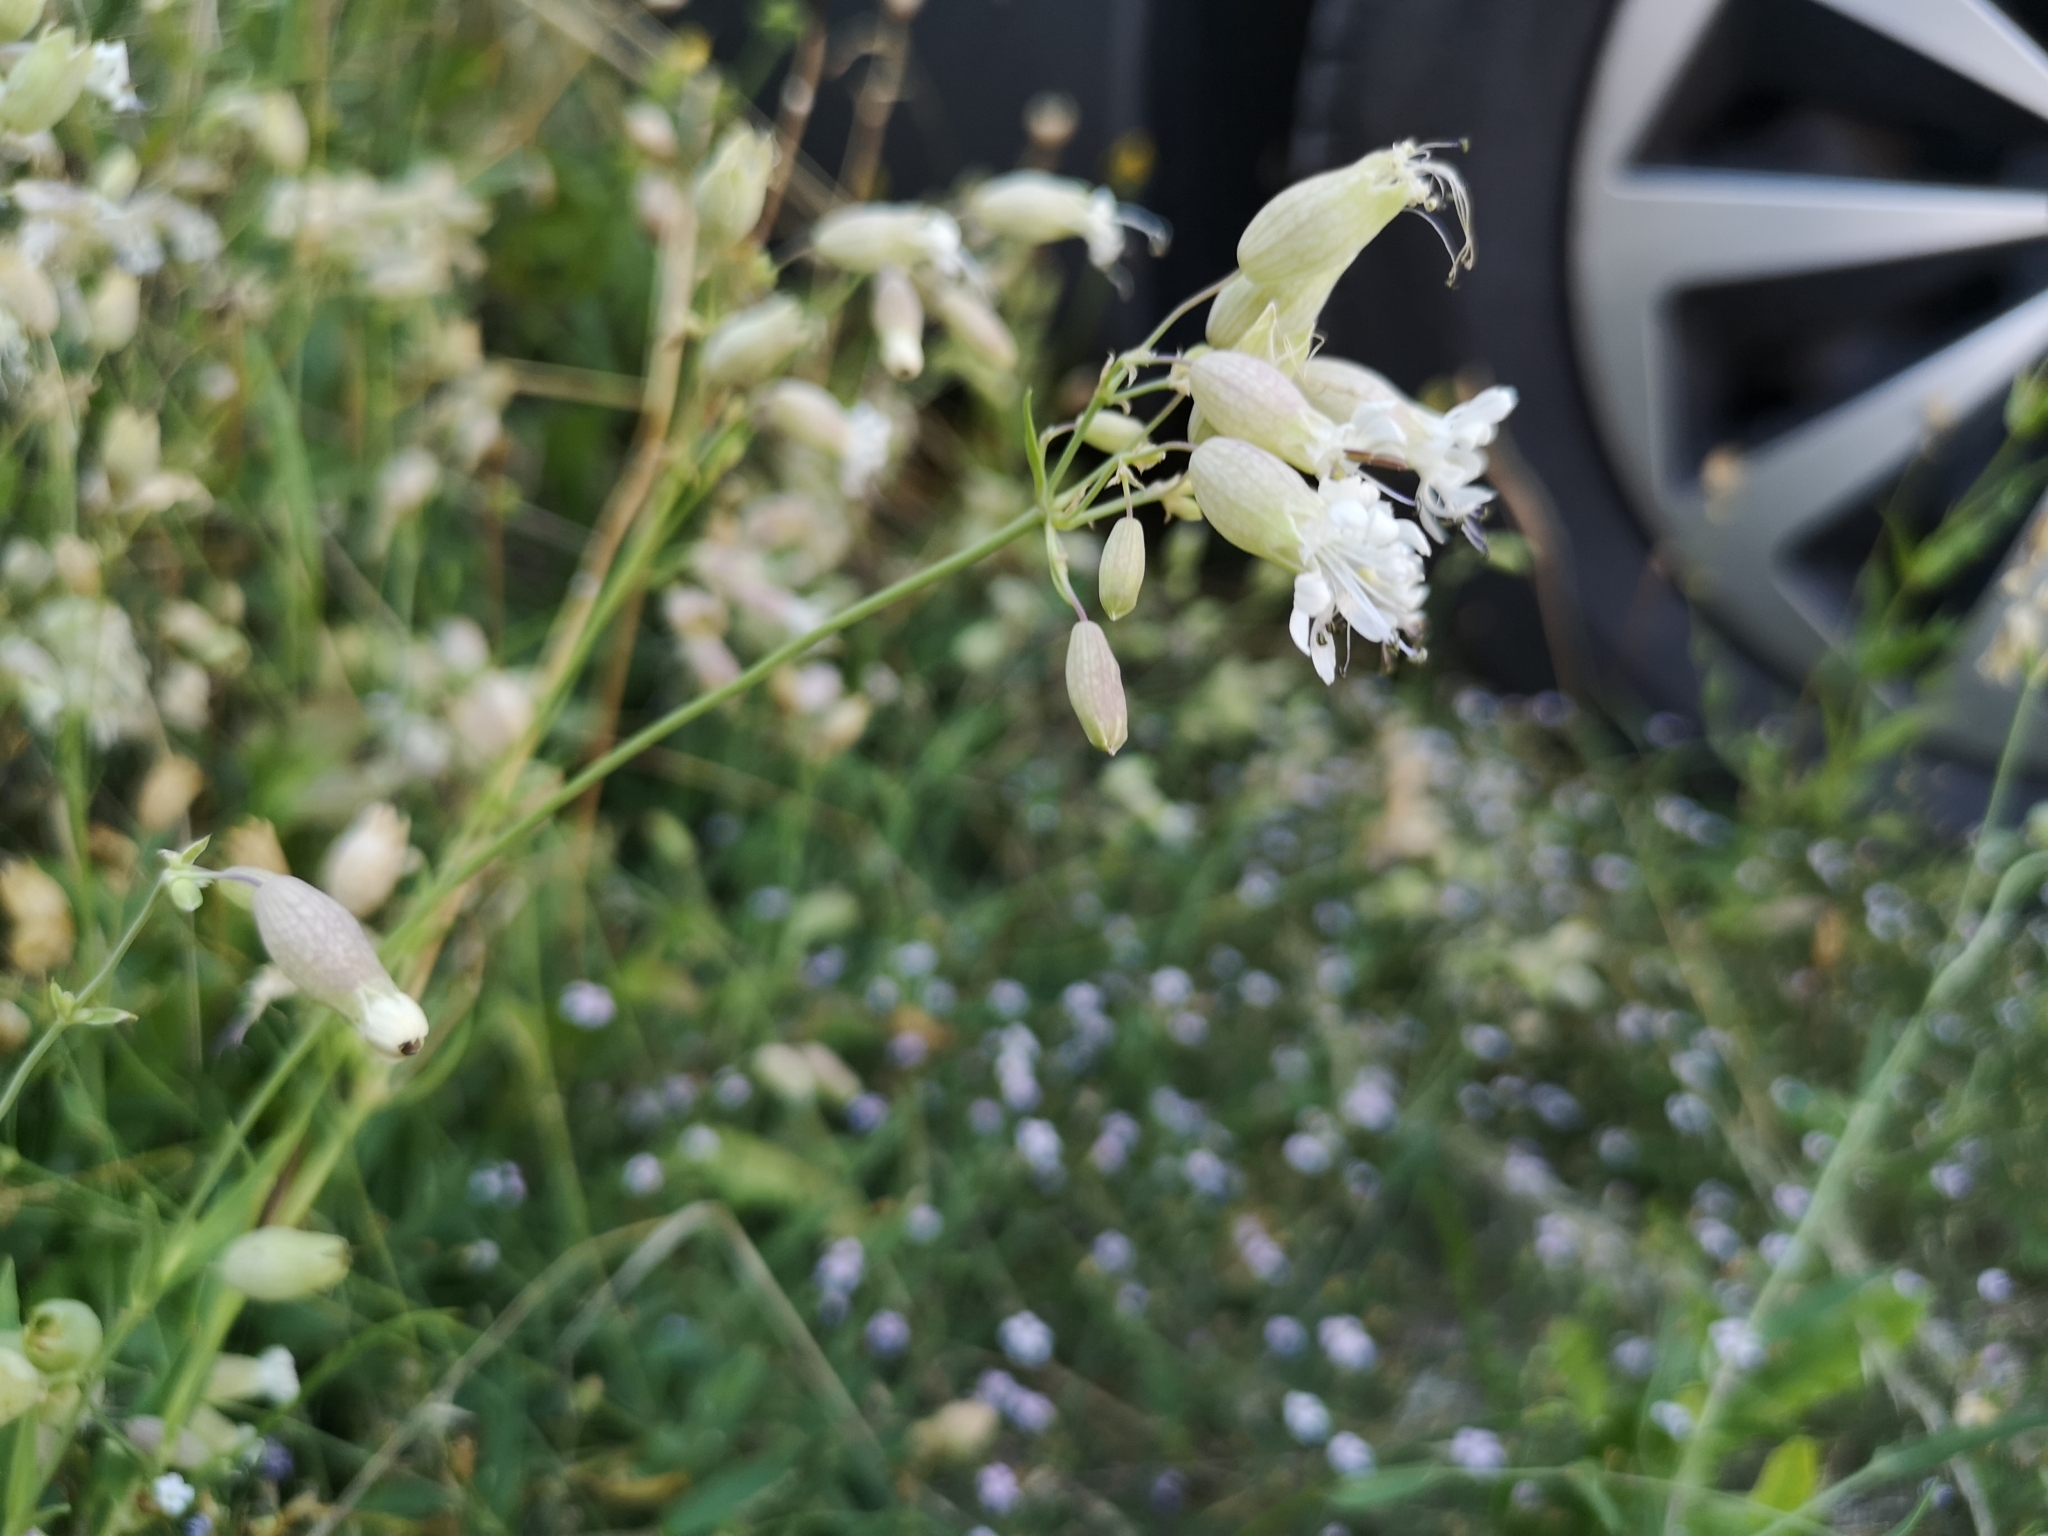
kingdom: Plantae
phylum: Tracheophyta
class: Magnoliopsida
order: Caryophyllales
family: Caryophyllaceae
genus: Silene
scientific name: Silene vulgaris
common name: Bladder campion
